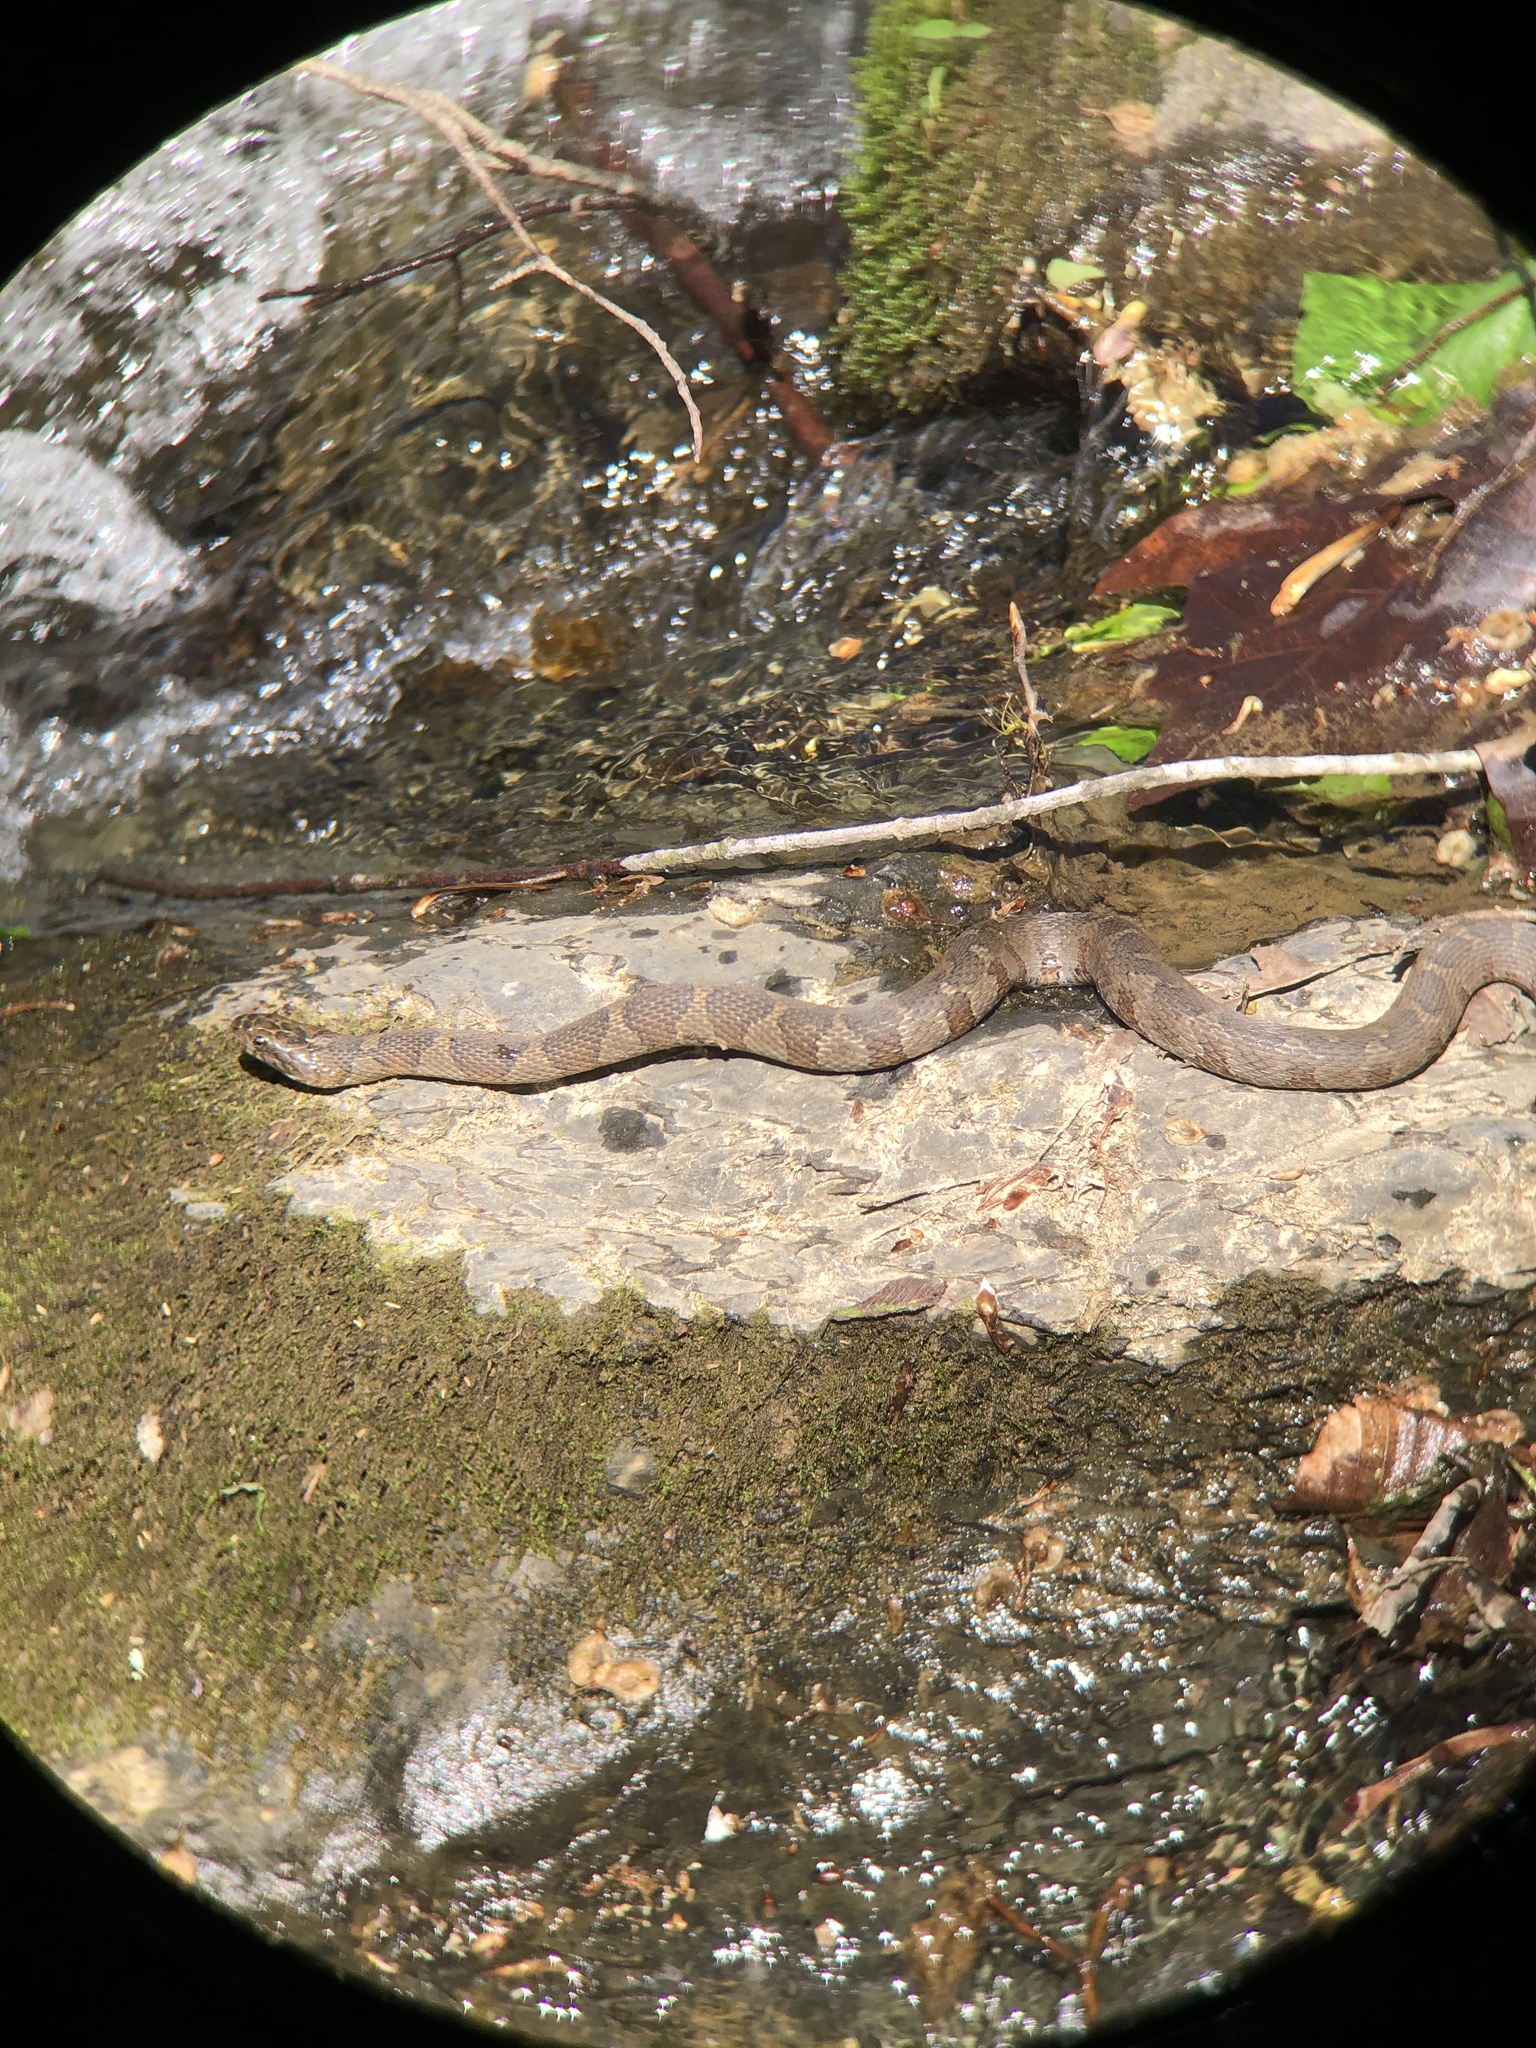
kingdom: Animalia
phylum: Chordata
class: Squamata
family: Colubridae
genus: Nerodia
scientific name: Nerodia sipedon
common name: Northern water snake
